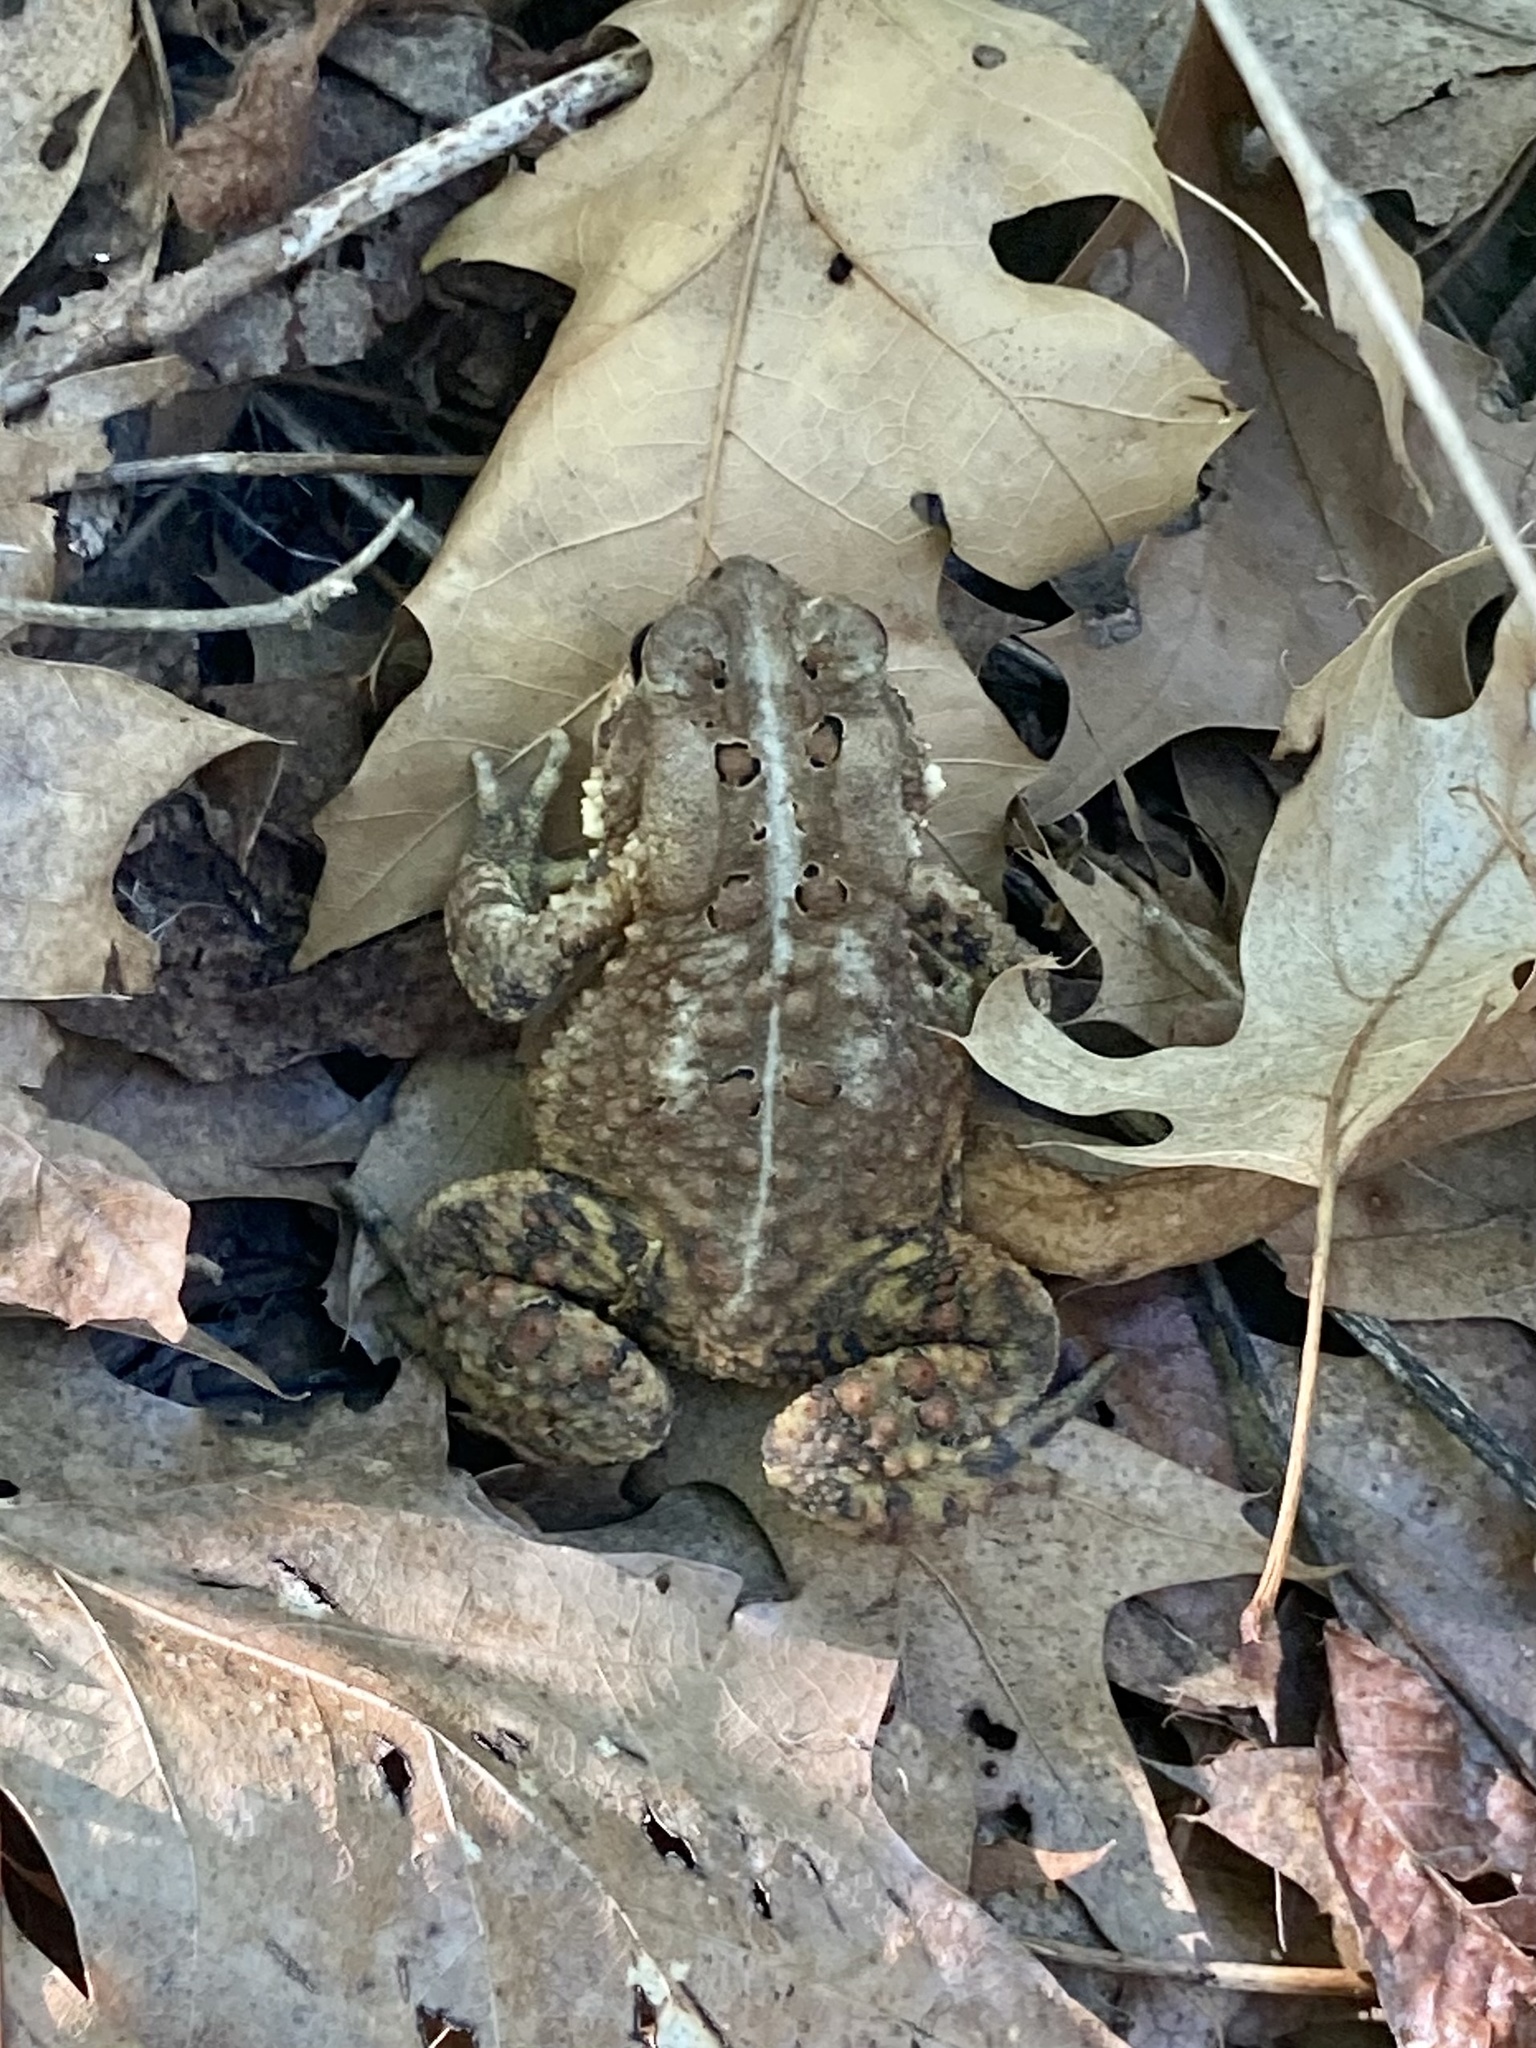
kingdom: Animalia
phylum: Chordata
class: Amphibia
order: Anura
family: Bufonidae
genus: Anaxyrus
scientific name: Anaxyrus americanus
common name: American toad
